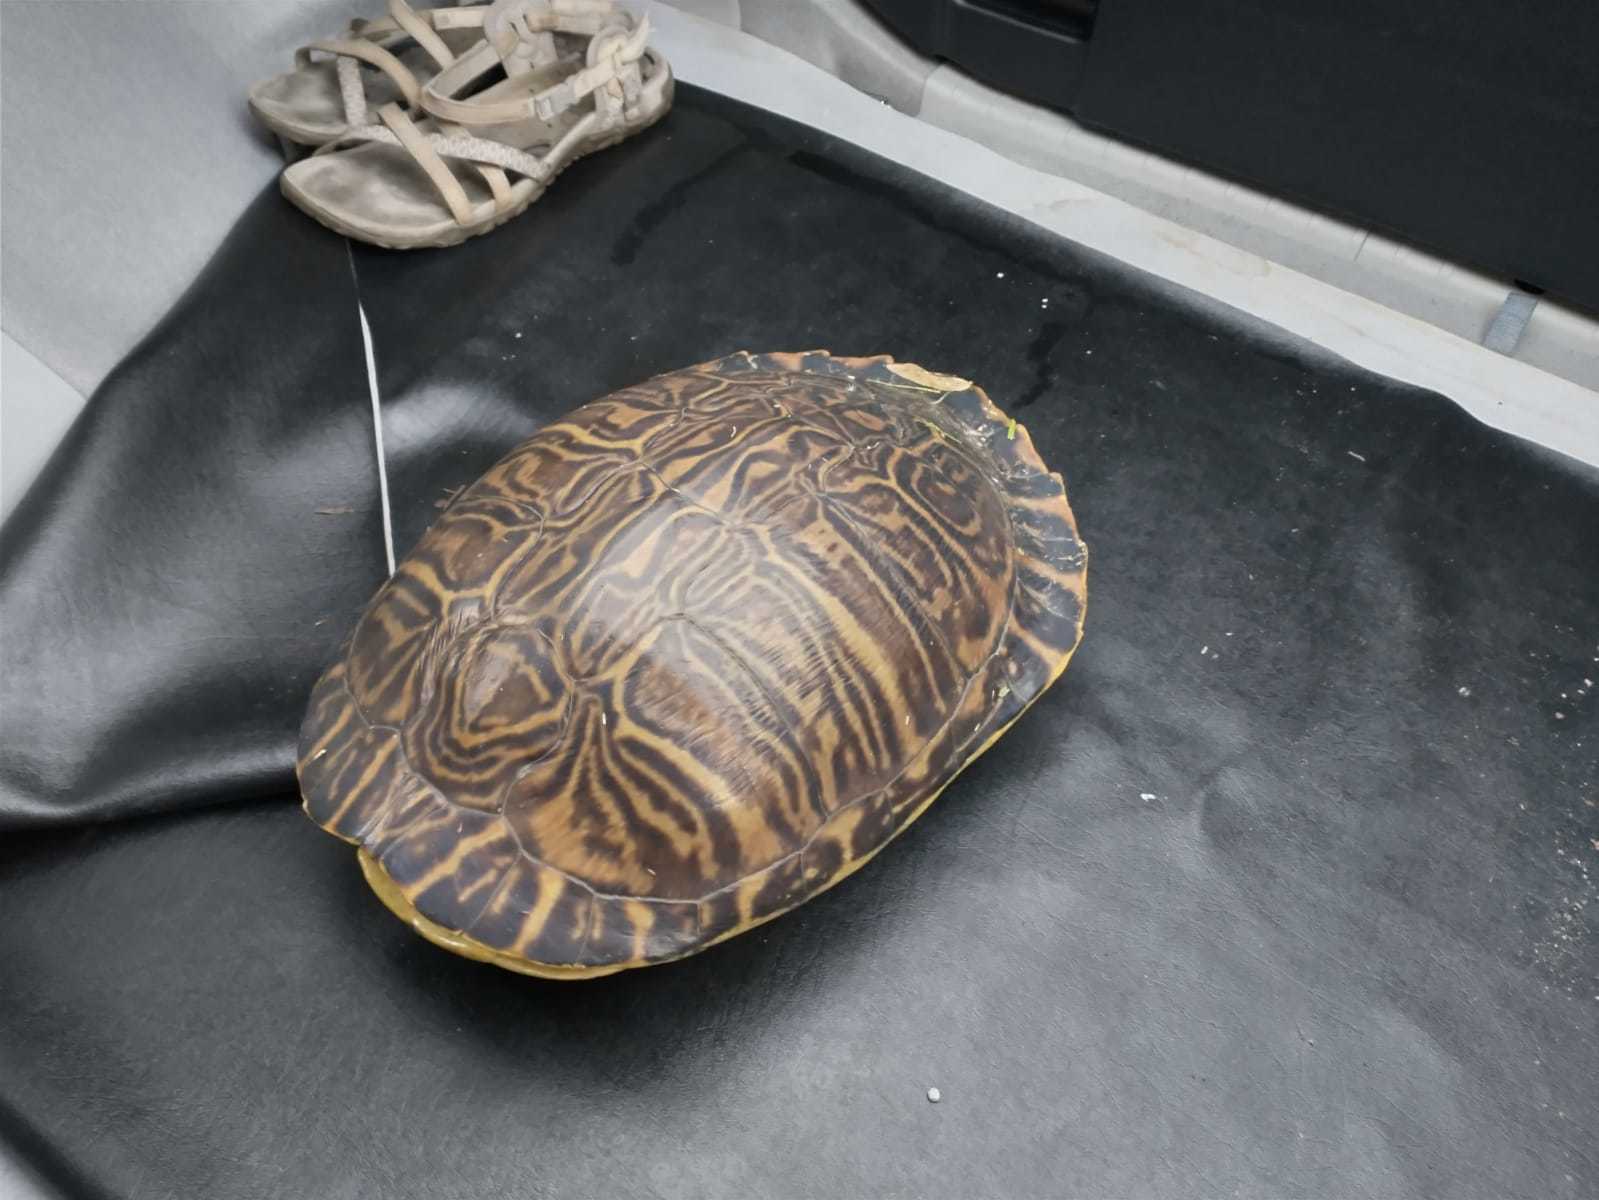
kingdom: Animalia
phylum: Chordata
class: Testudines
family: Emydidae
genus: Pseudemys
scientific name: Pseudemys peninsularis
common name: Peninsula cooter
